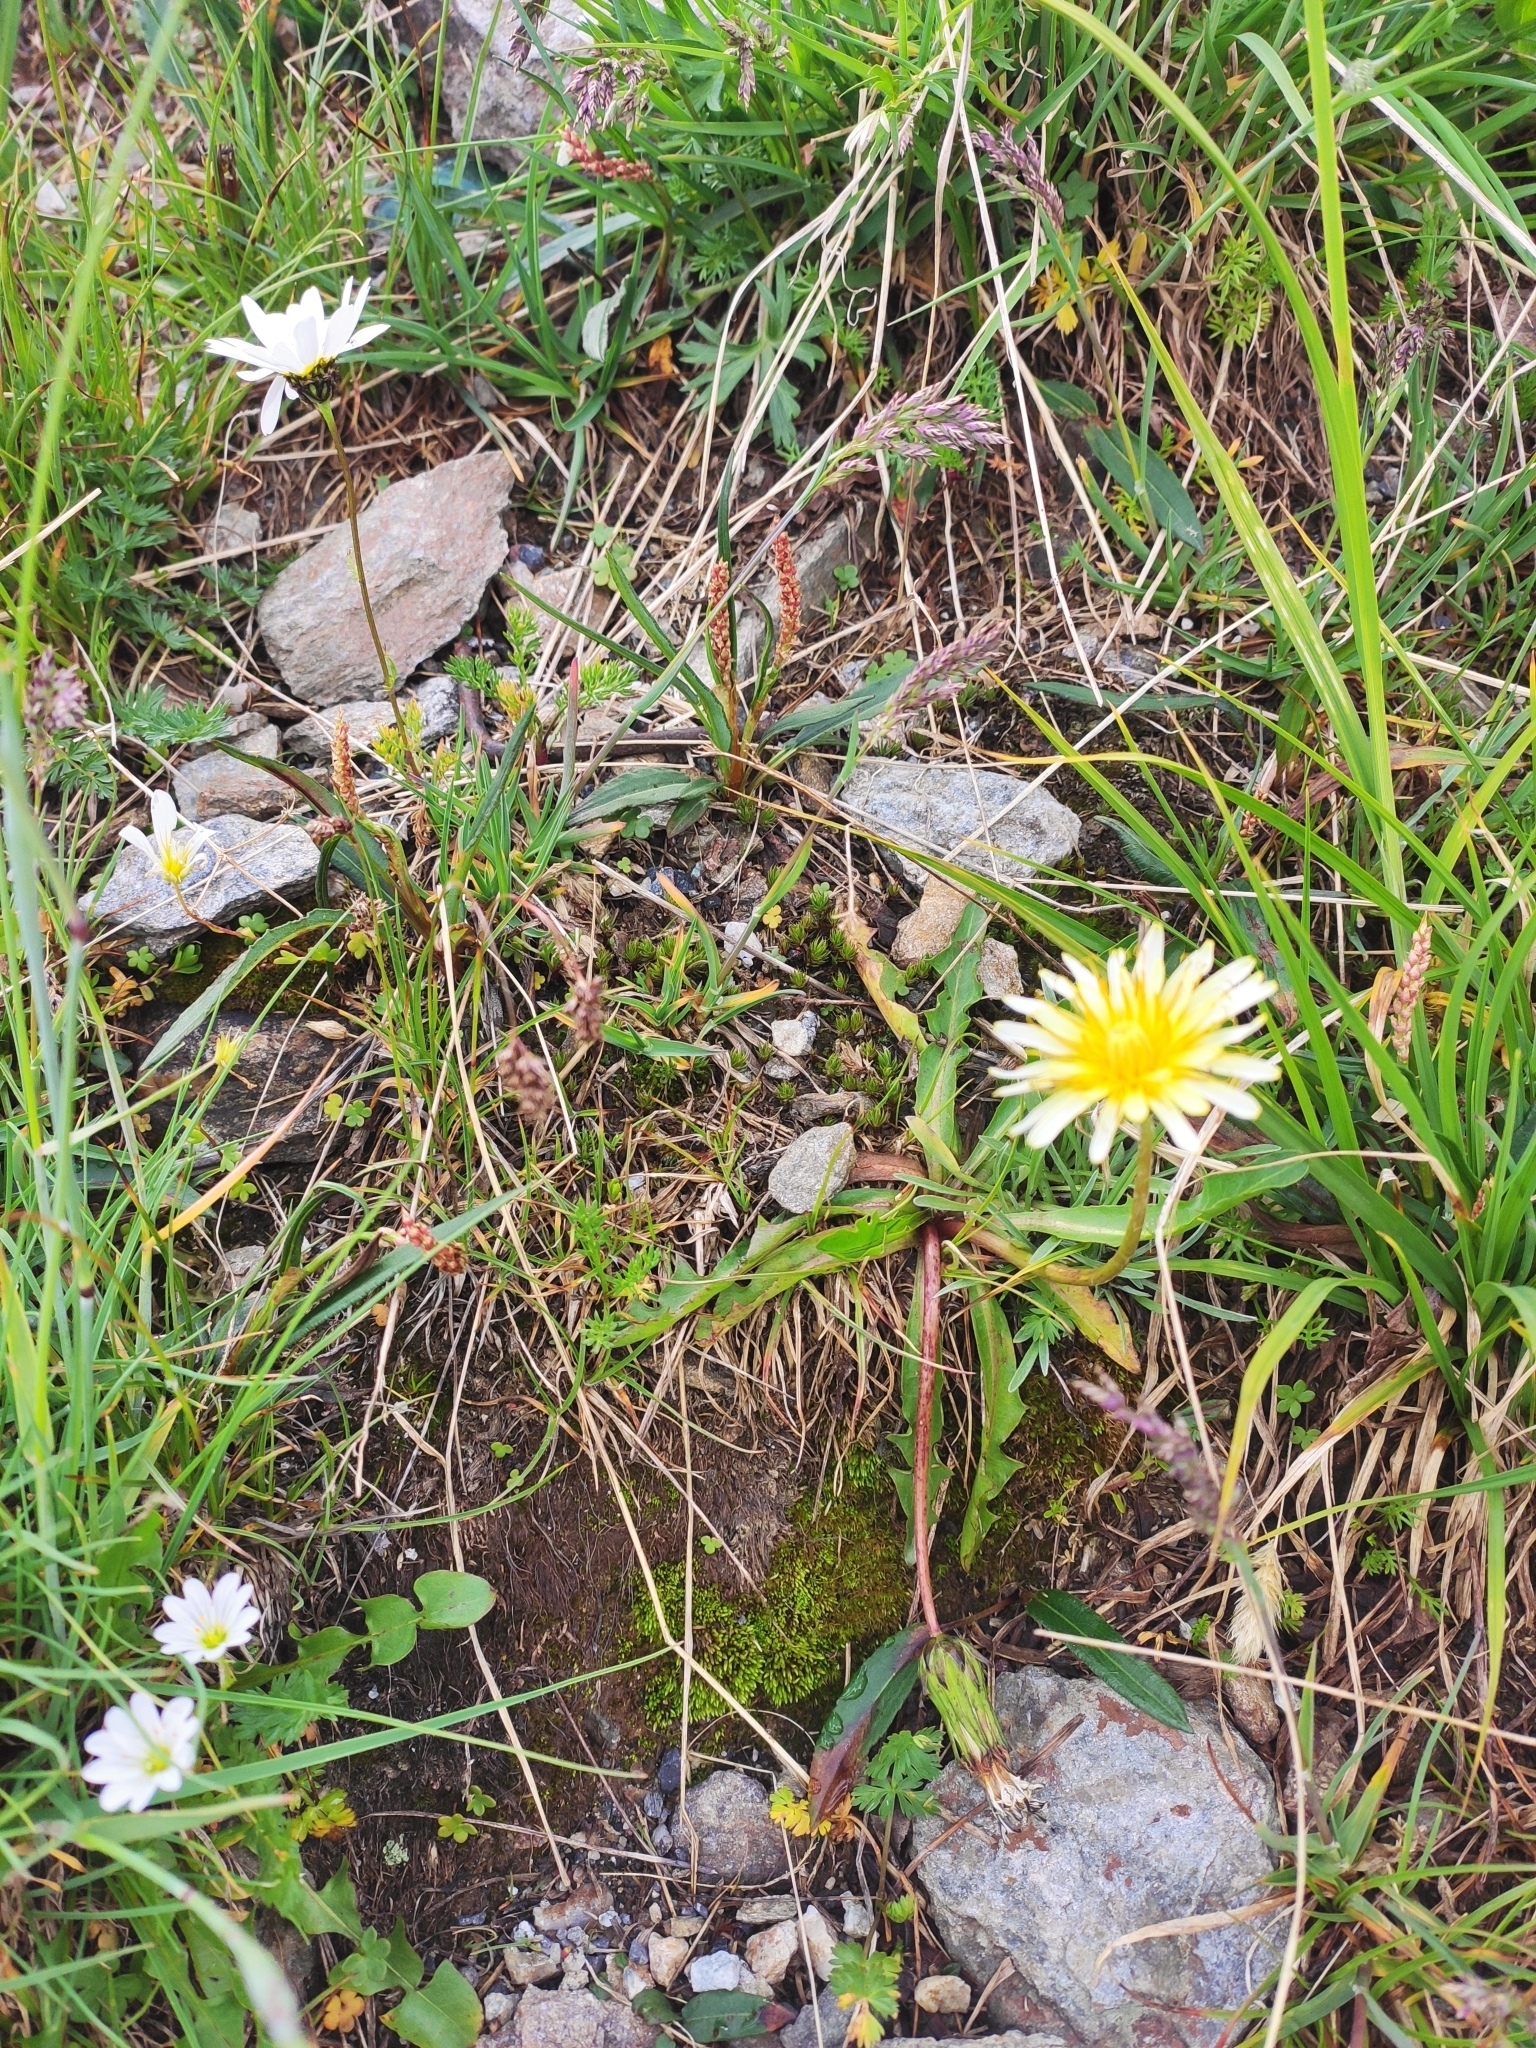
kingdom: Plantae
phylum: Tracheophyta
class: Magnoliopsida
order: Asterales
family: Asteraceae
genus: Taraxacum
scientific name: Taraxacum confusum
